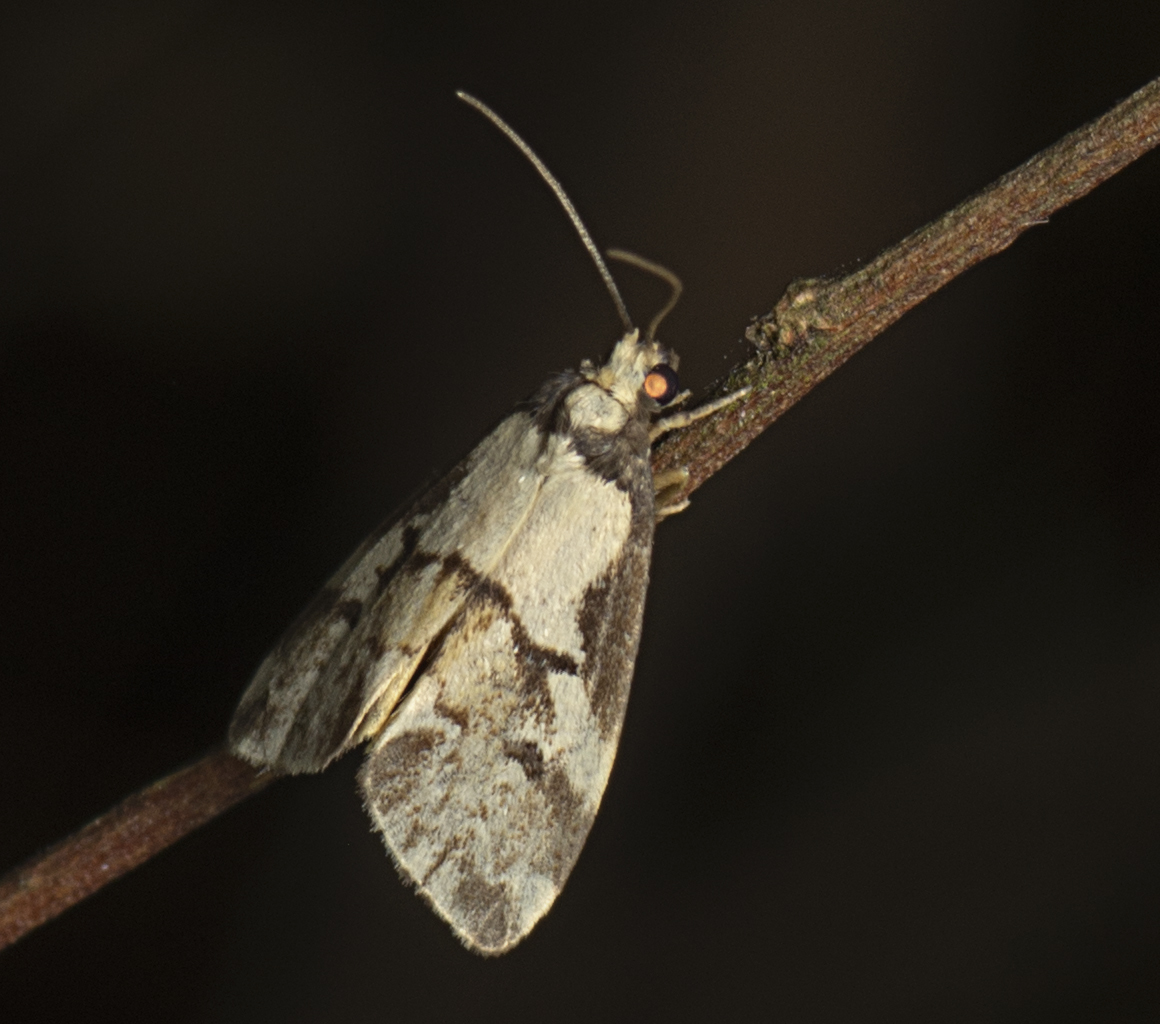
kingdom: Animalia
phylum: Arthropoda
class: Insecta
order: Lepidoptera
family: Erebidae
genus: Philenora
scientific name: Philenora chionastis
